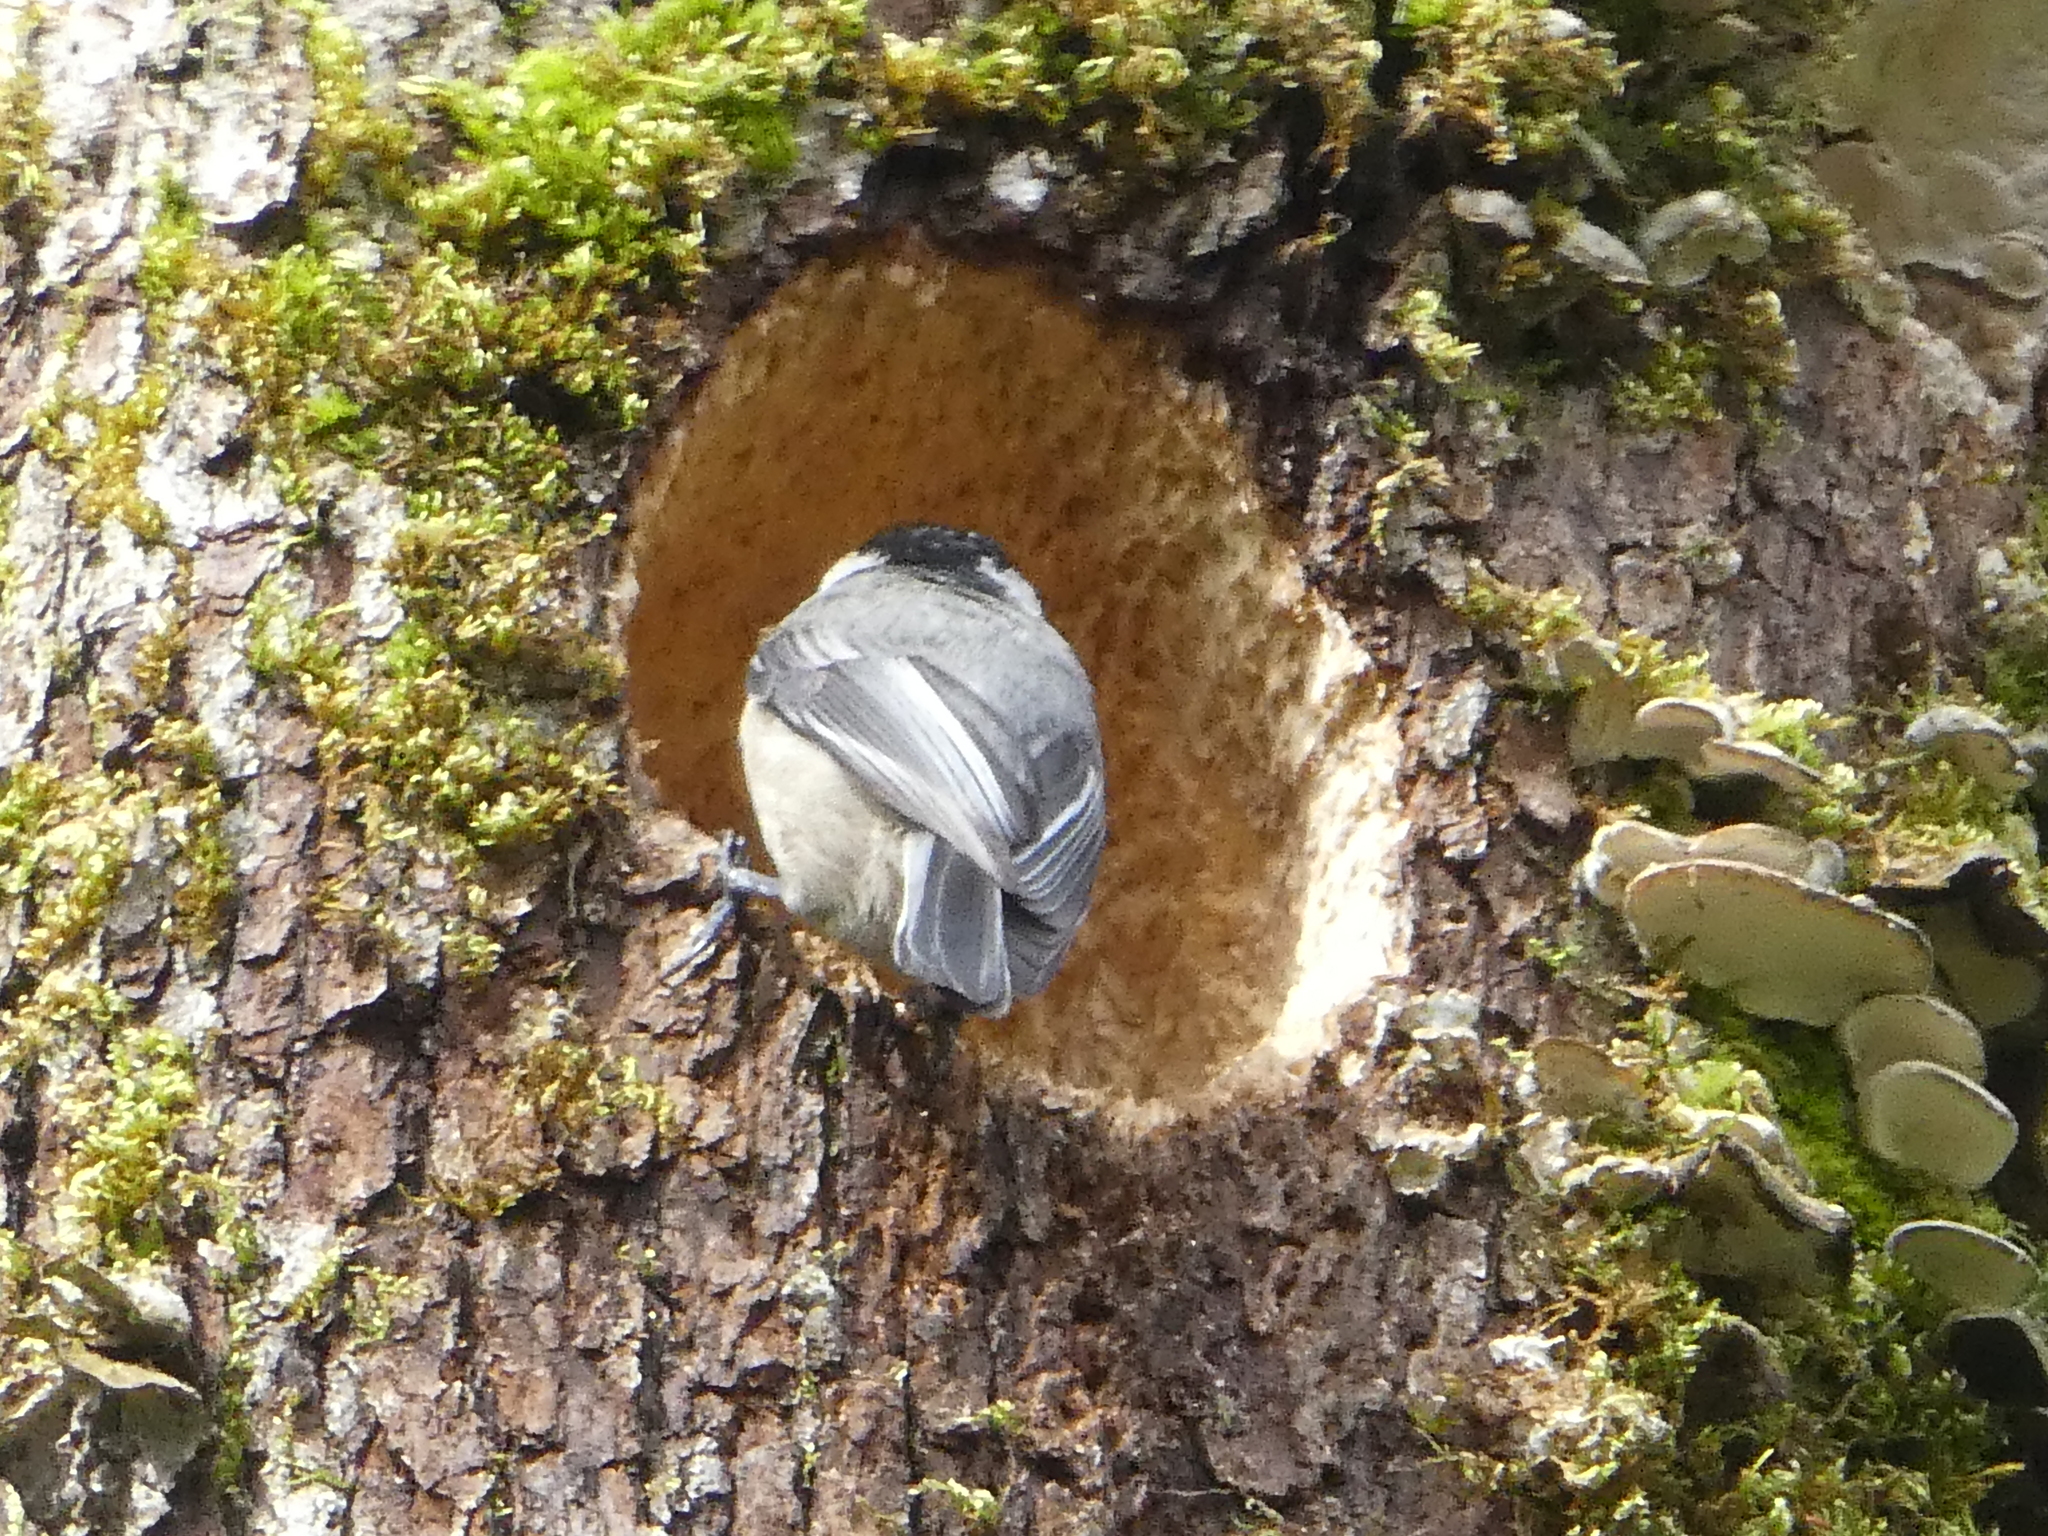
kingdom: Animalia
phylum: Chordata
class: Aves
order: Passeriformes
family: Paridae
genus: Poecile
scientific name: Poecile atricapillus
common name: Black-capped chickadee
